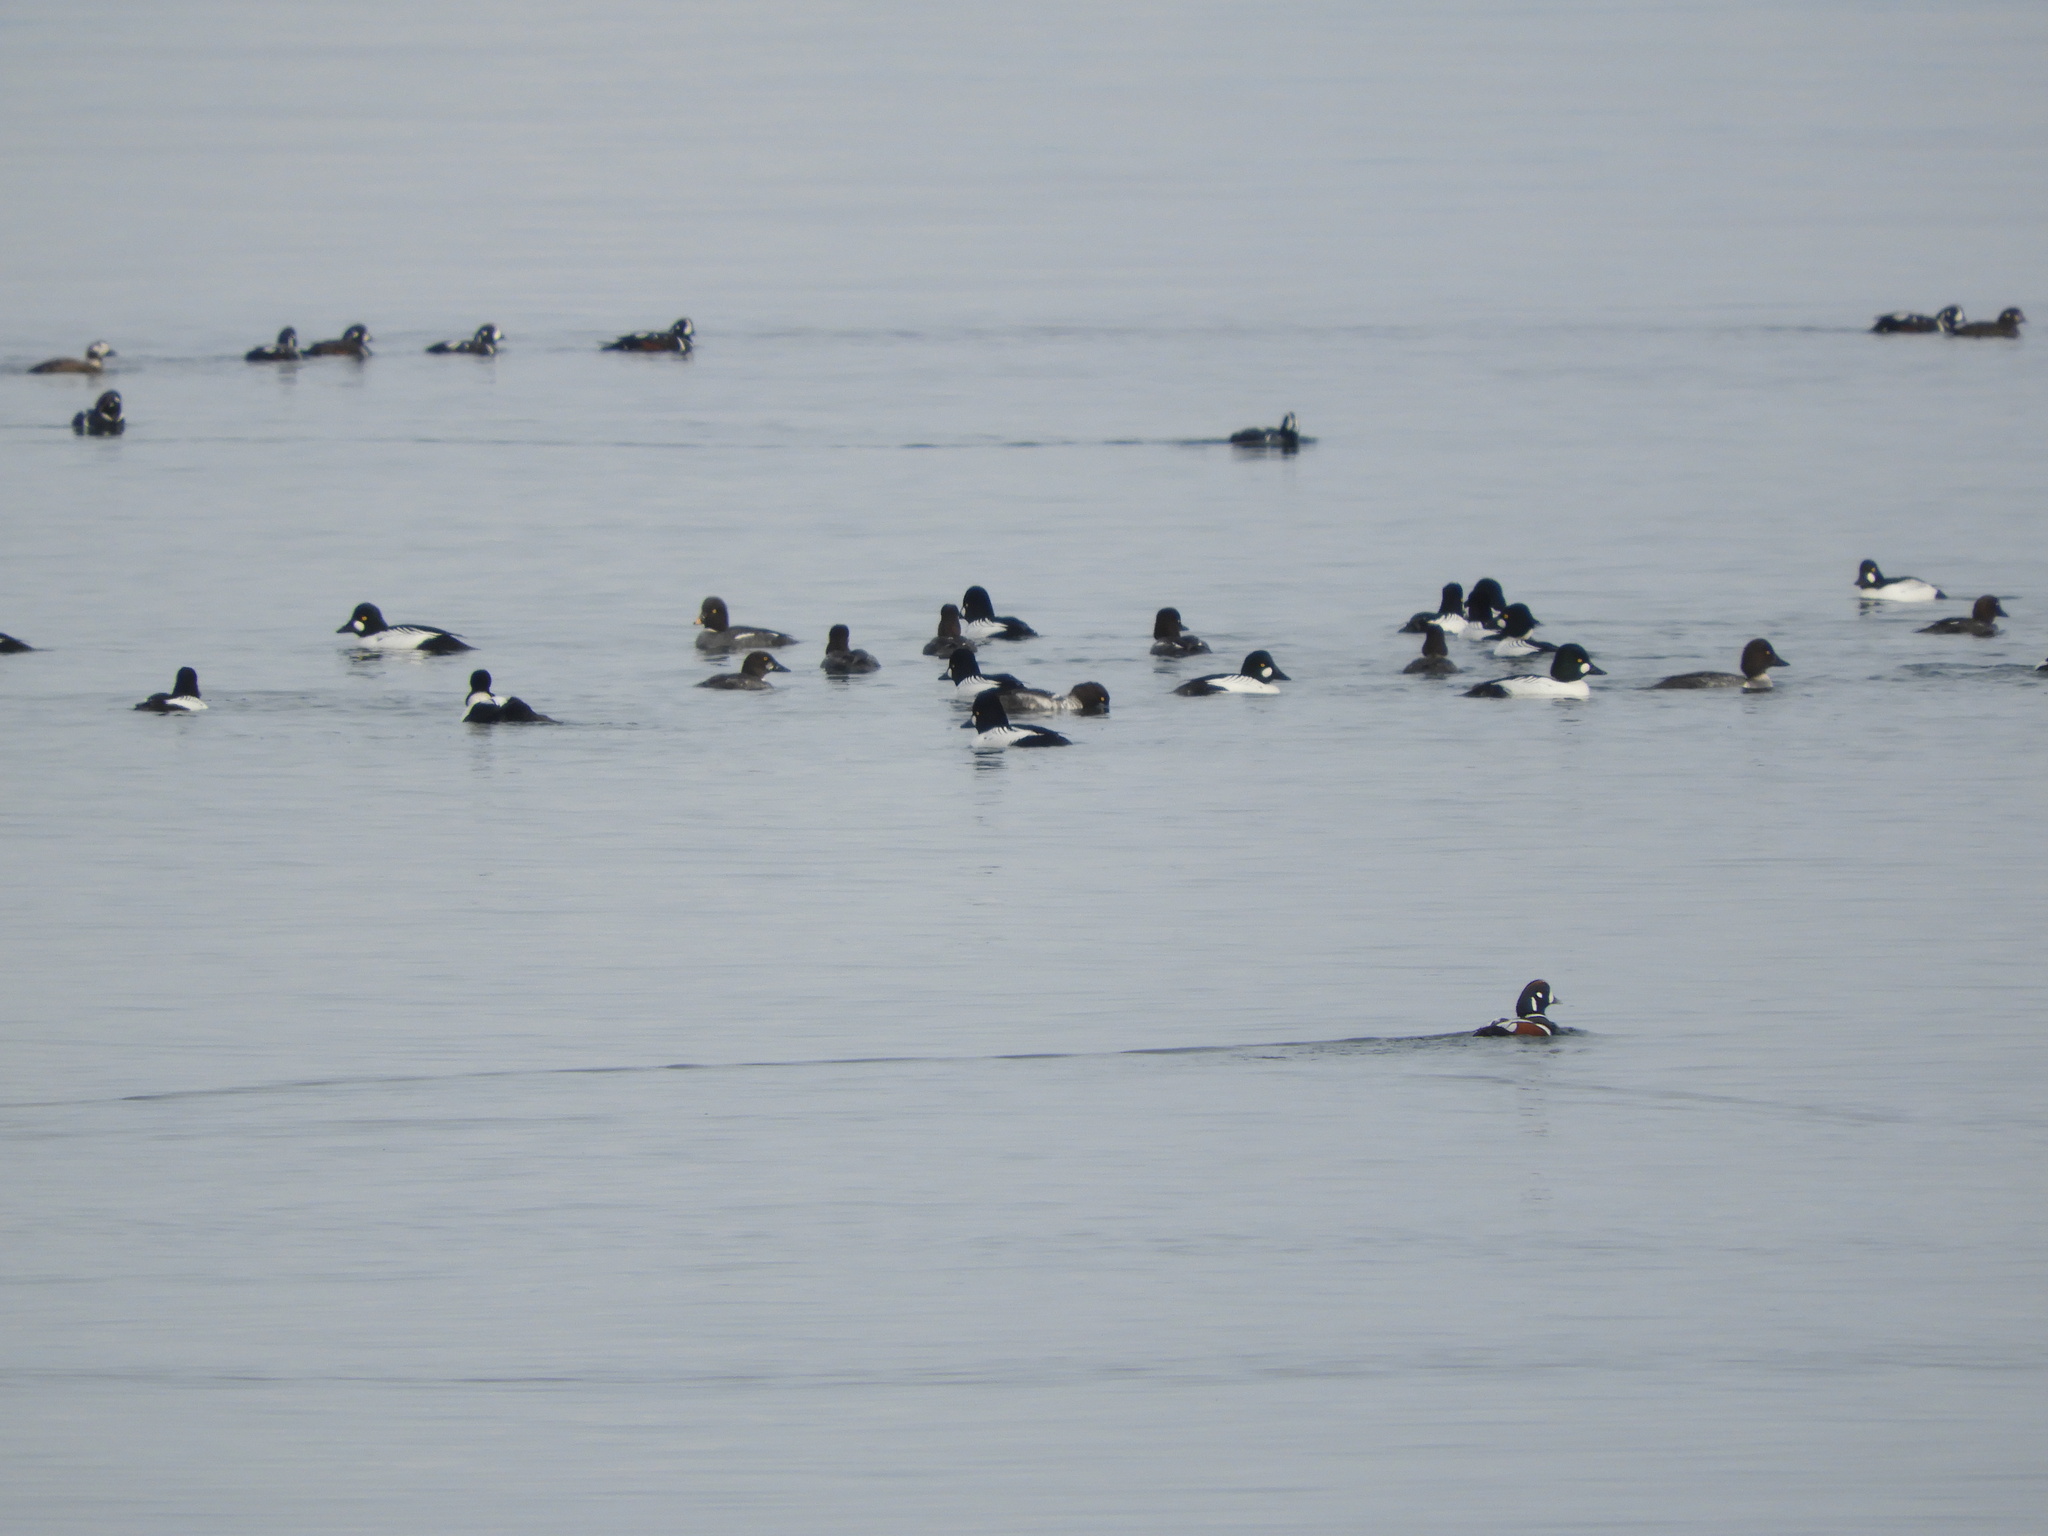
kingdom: Animalia
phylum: Chordata
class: Aves
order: Anseriformes
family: Anatidae
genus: Bucephala
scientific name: Bucephala clangula
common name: Common goldeneye
